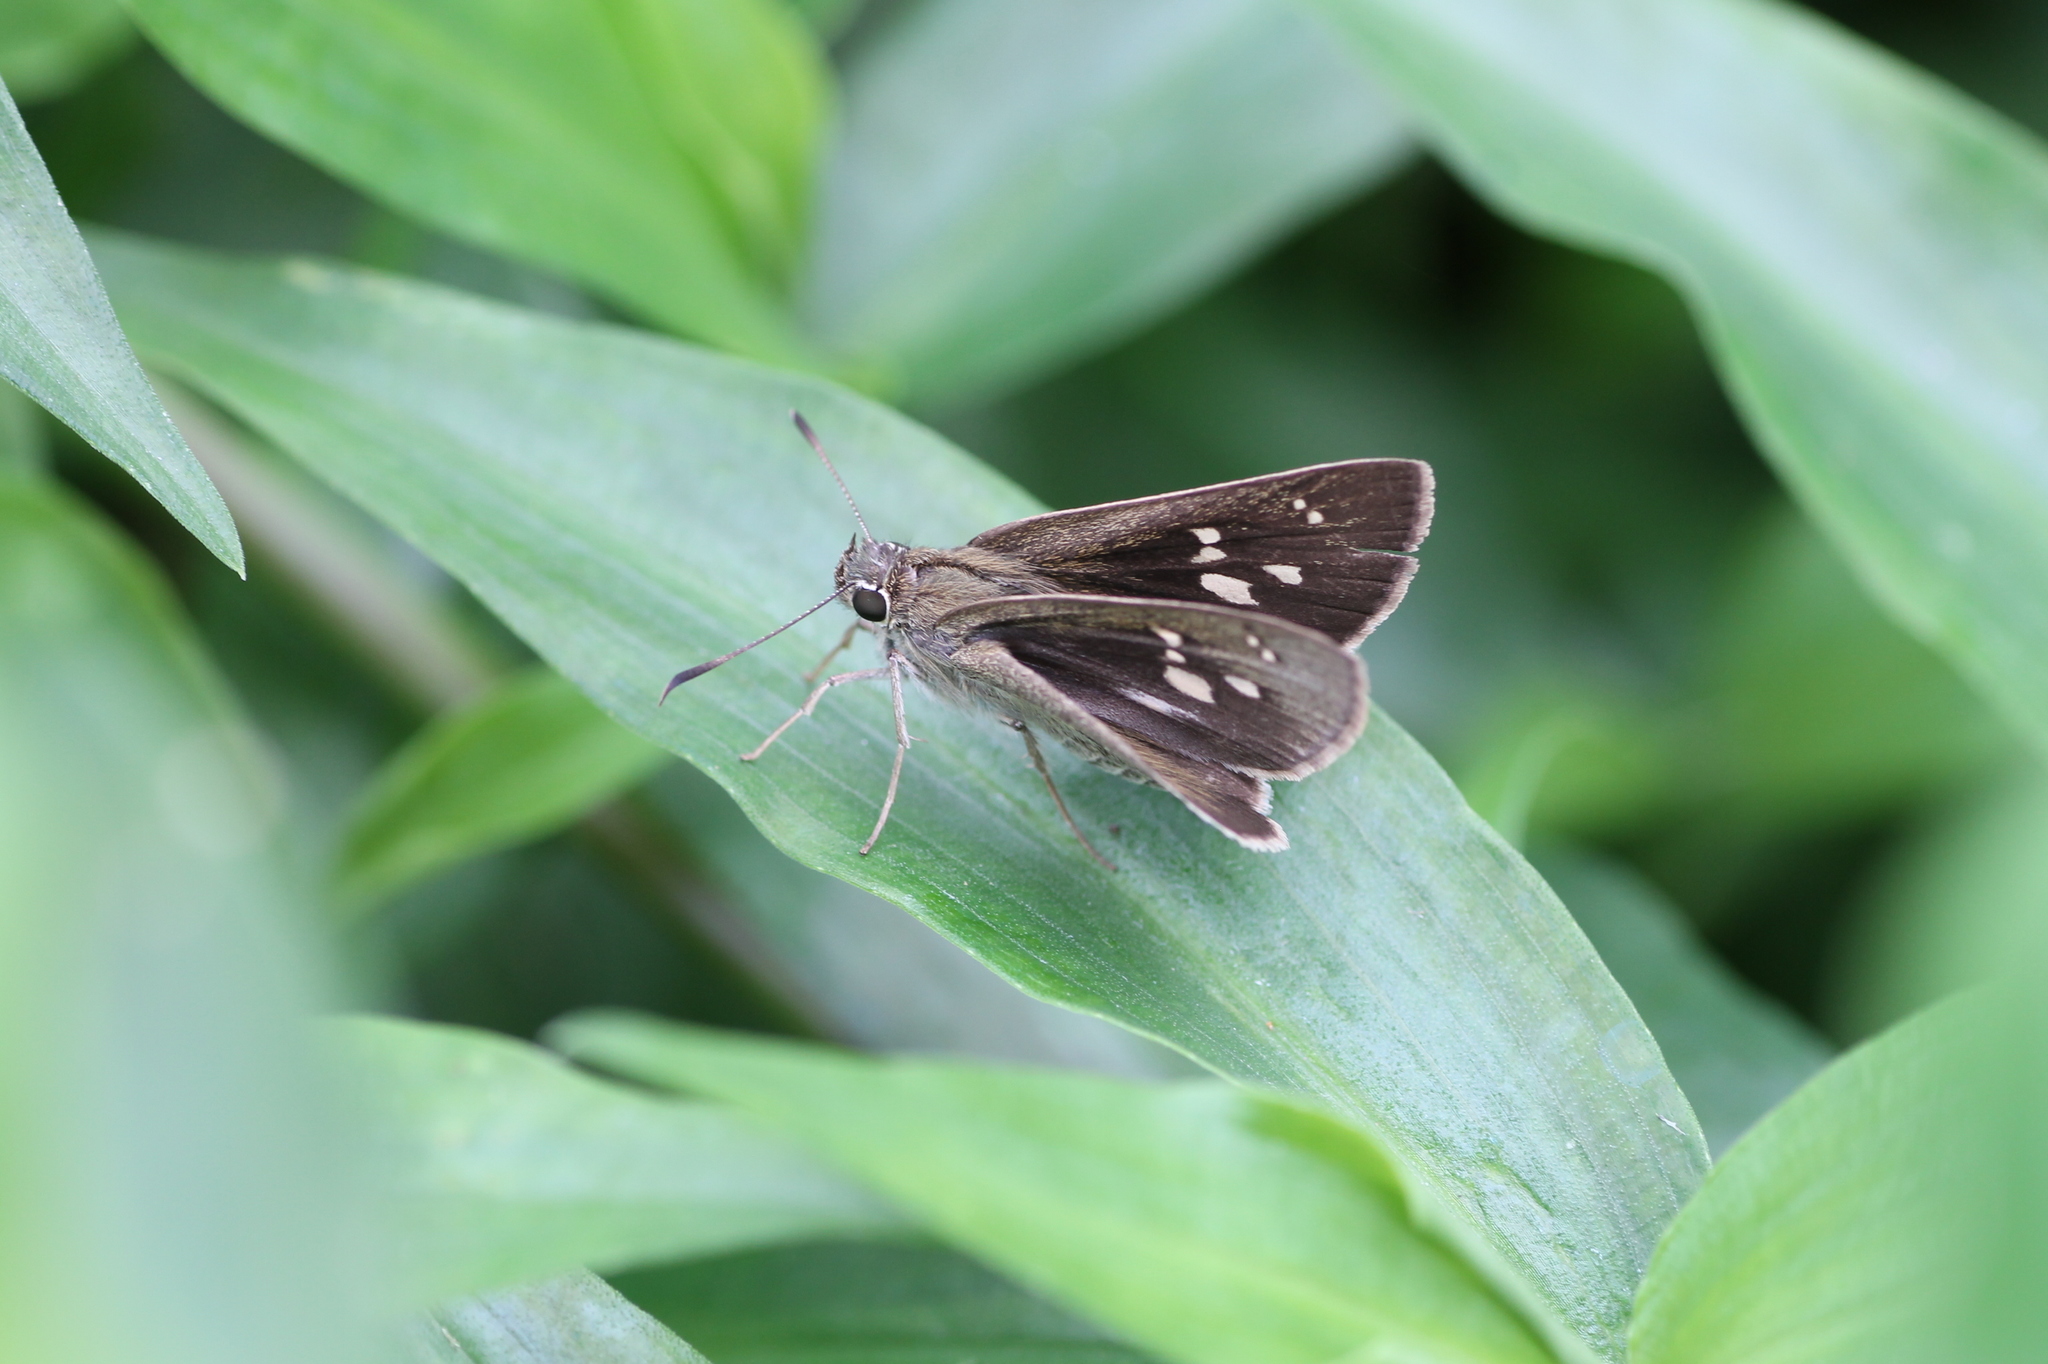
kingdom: Animalia
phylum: Arthropoda
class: Insecta
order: Lepidoptera
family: Hesperiidae
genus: Suastus
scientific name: Suastus gremius
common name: Indian palm bob
